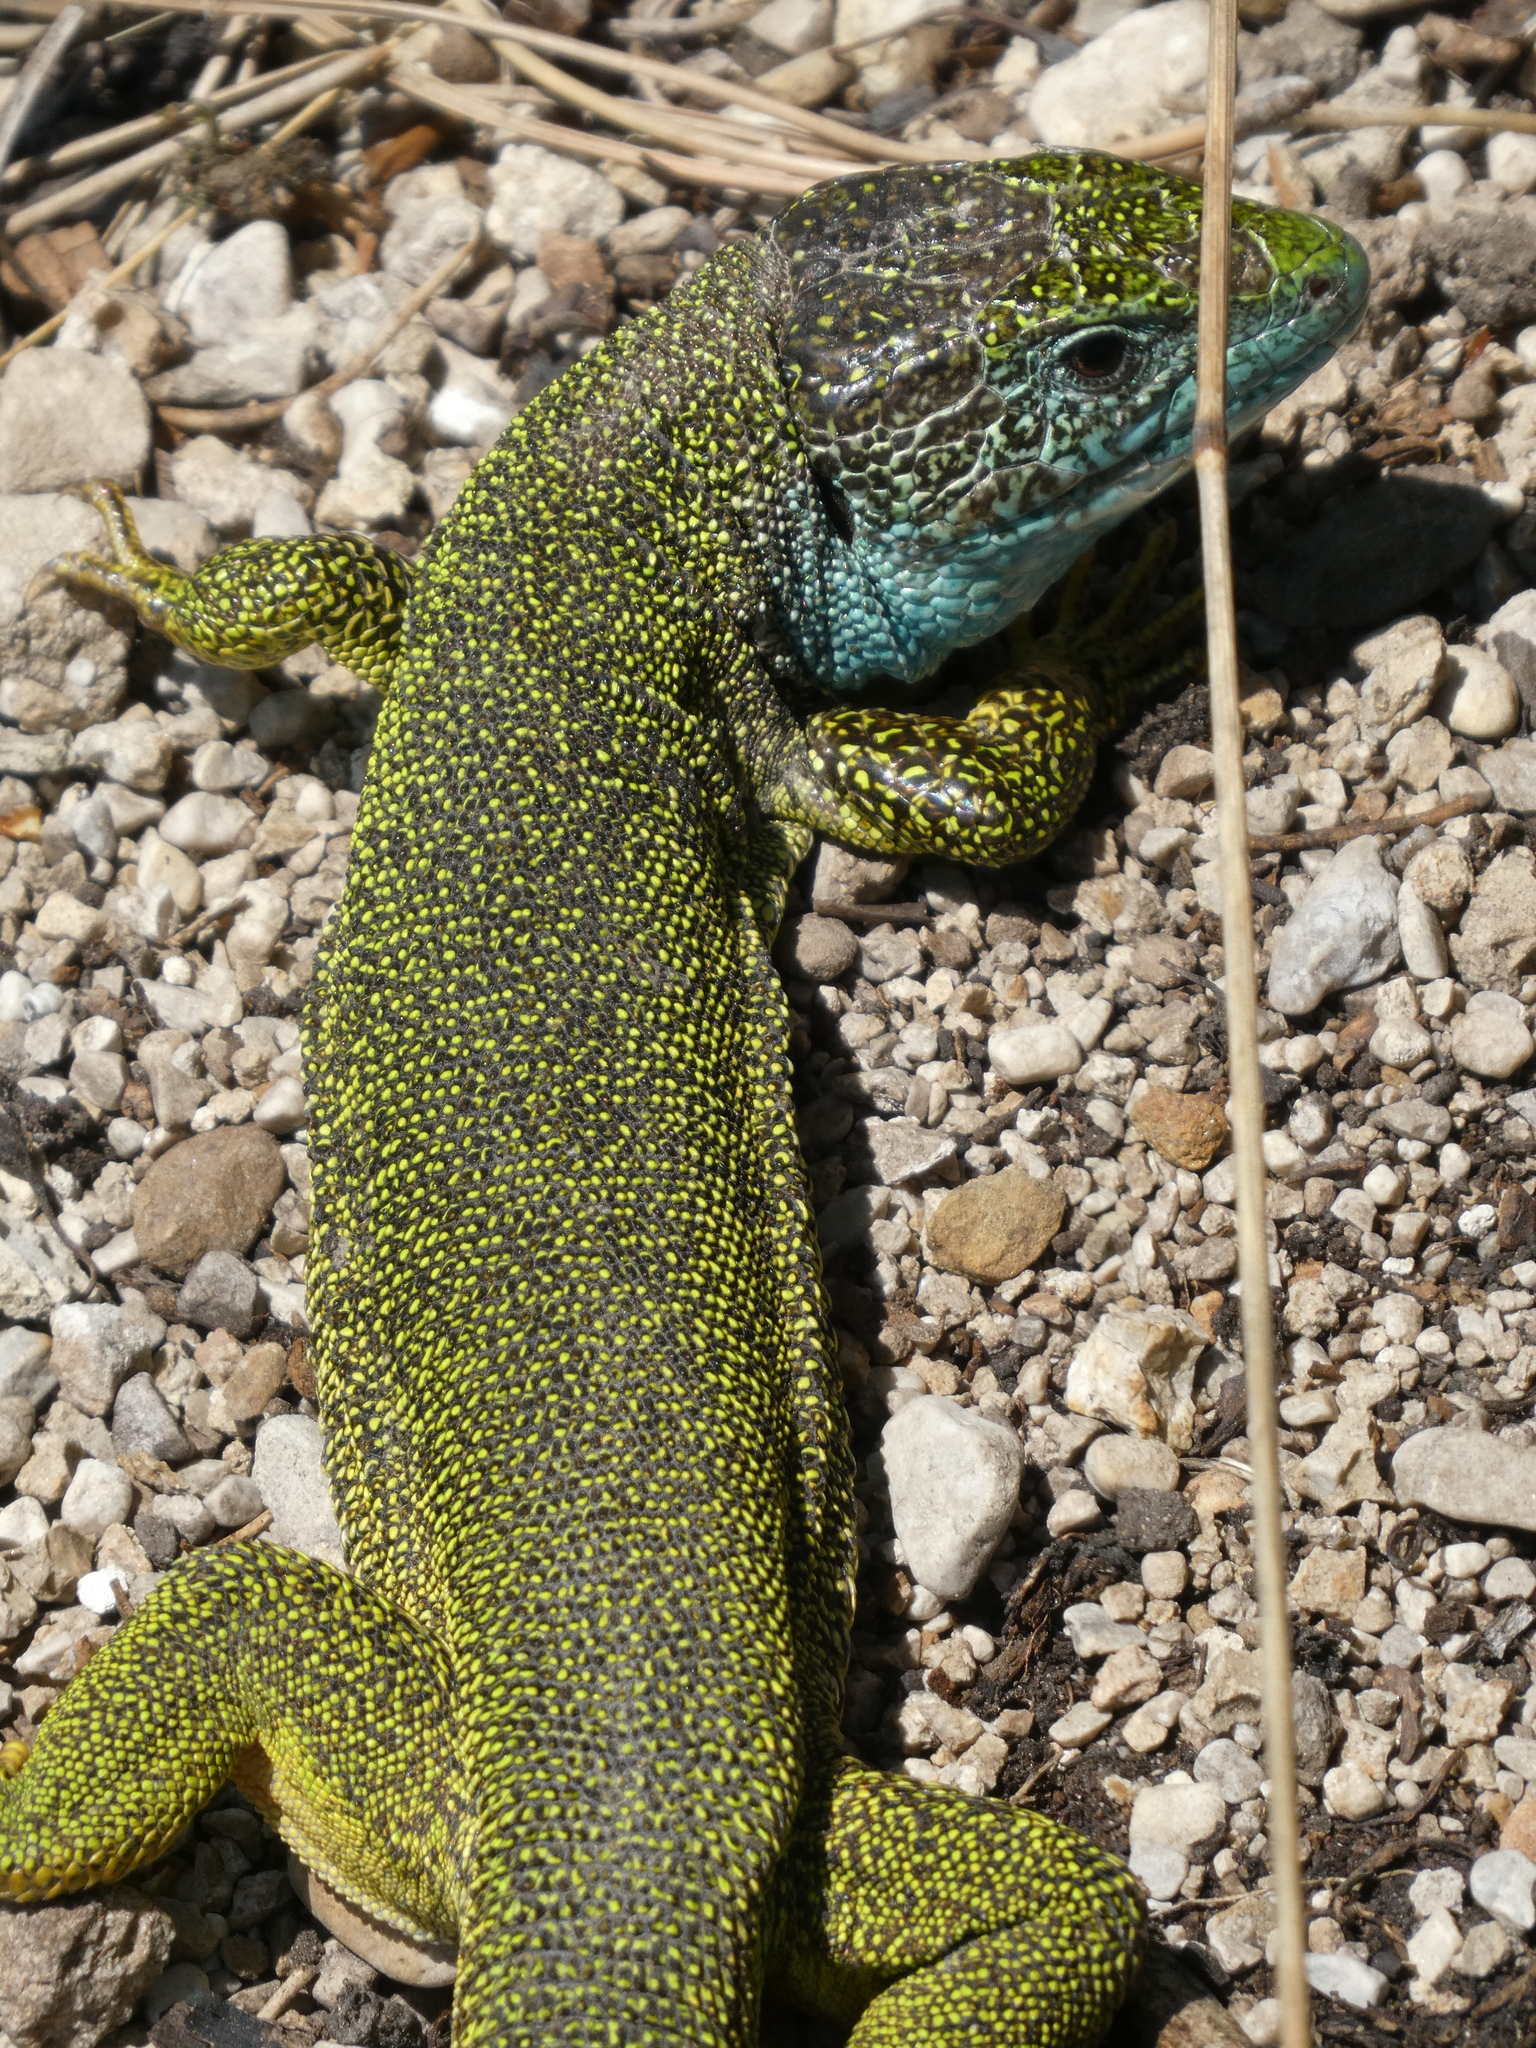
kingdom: Animalia
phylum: Chordata
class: Squamata
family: Lacertidae
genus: Lacerta
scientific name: Lacerta viridis
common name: European green lizard
